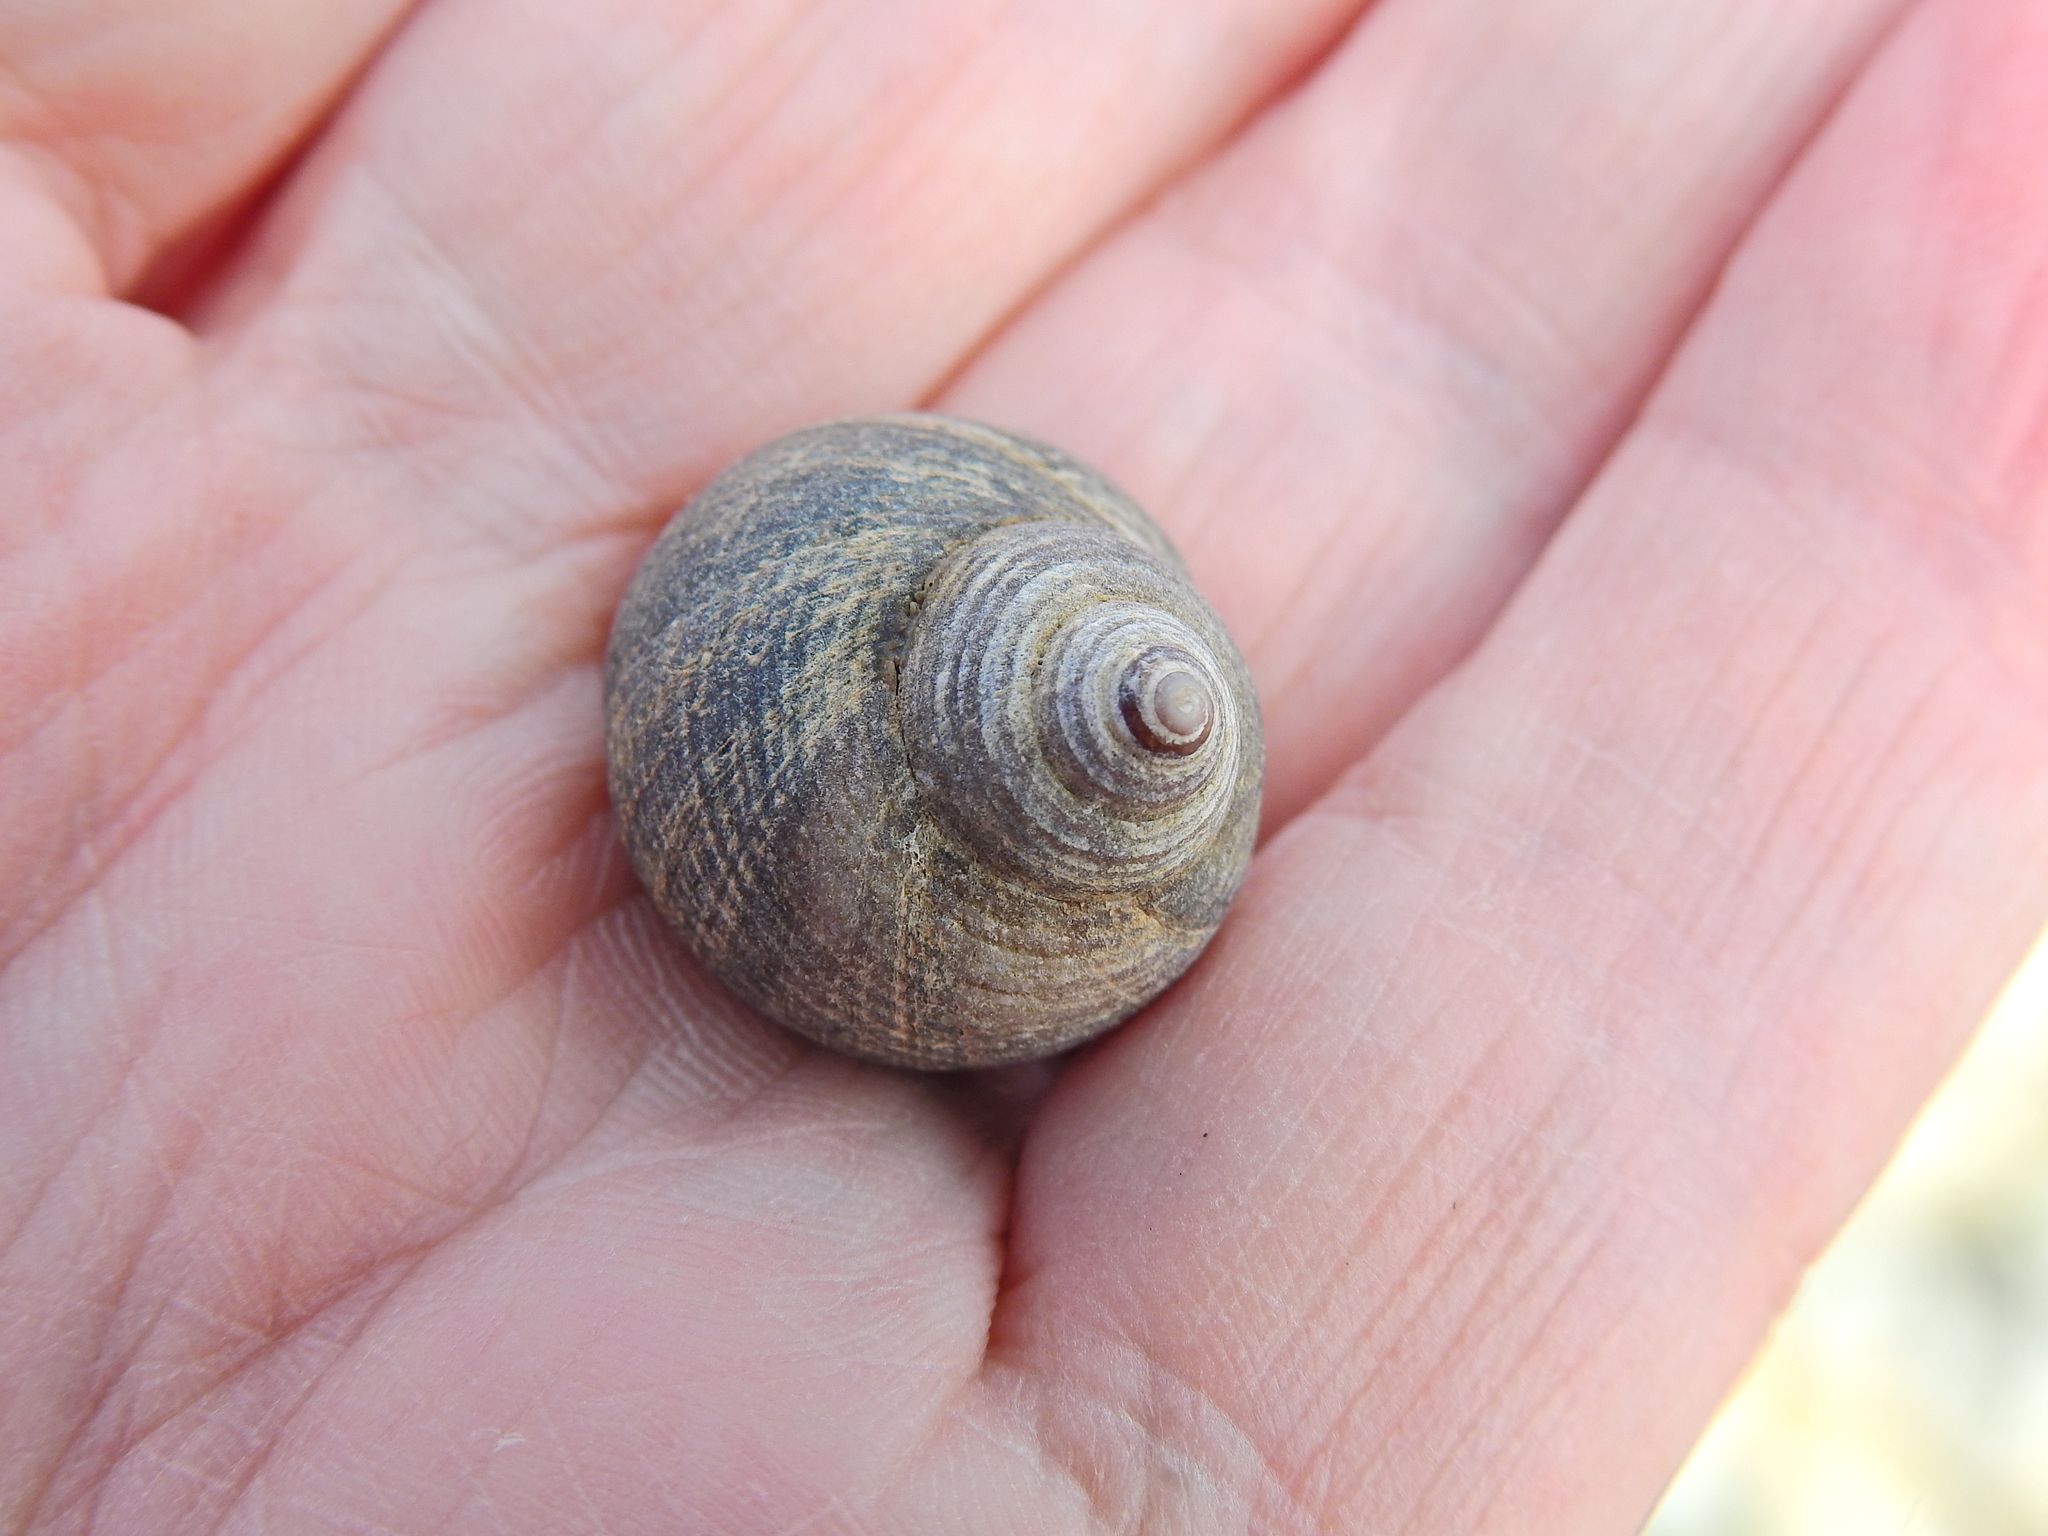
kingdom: Animalia
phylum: Mollusca
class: Gastropoda
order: Littorinimorpha
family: Littorinidae
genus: Littorina
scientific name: Littorina littorea
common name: Common periwinkle
